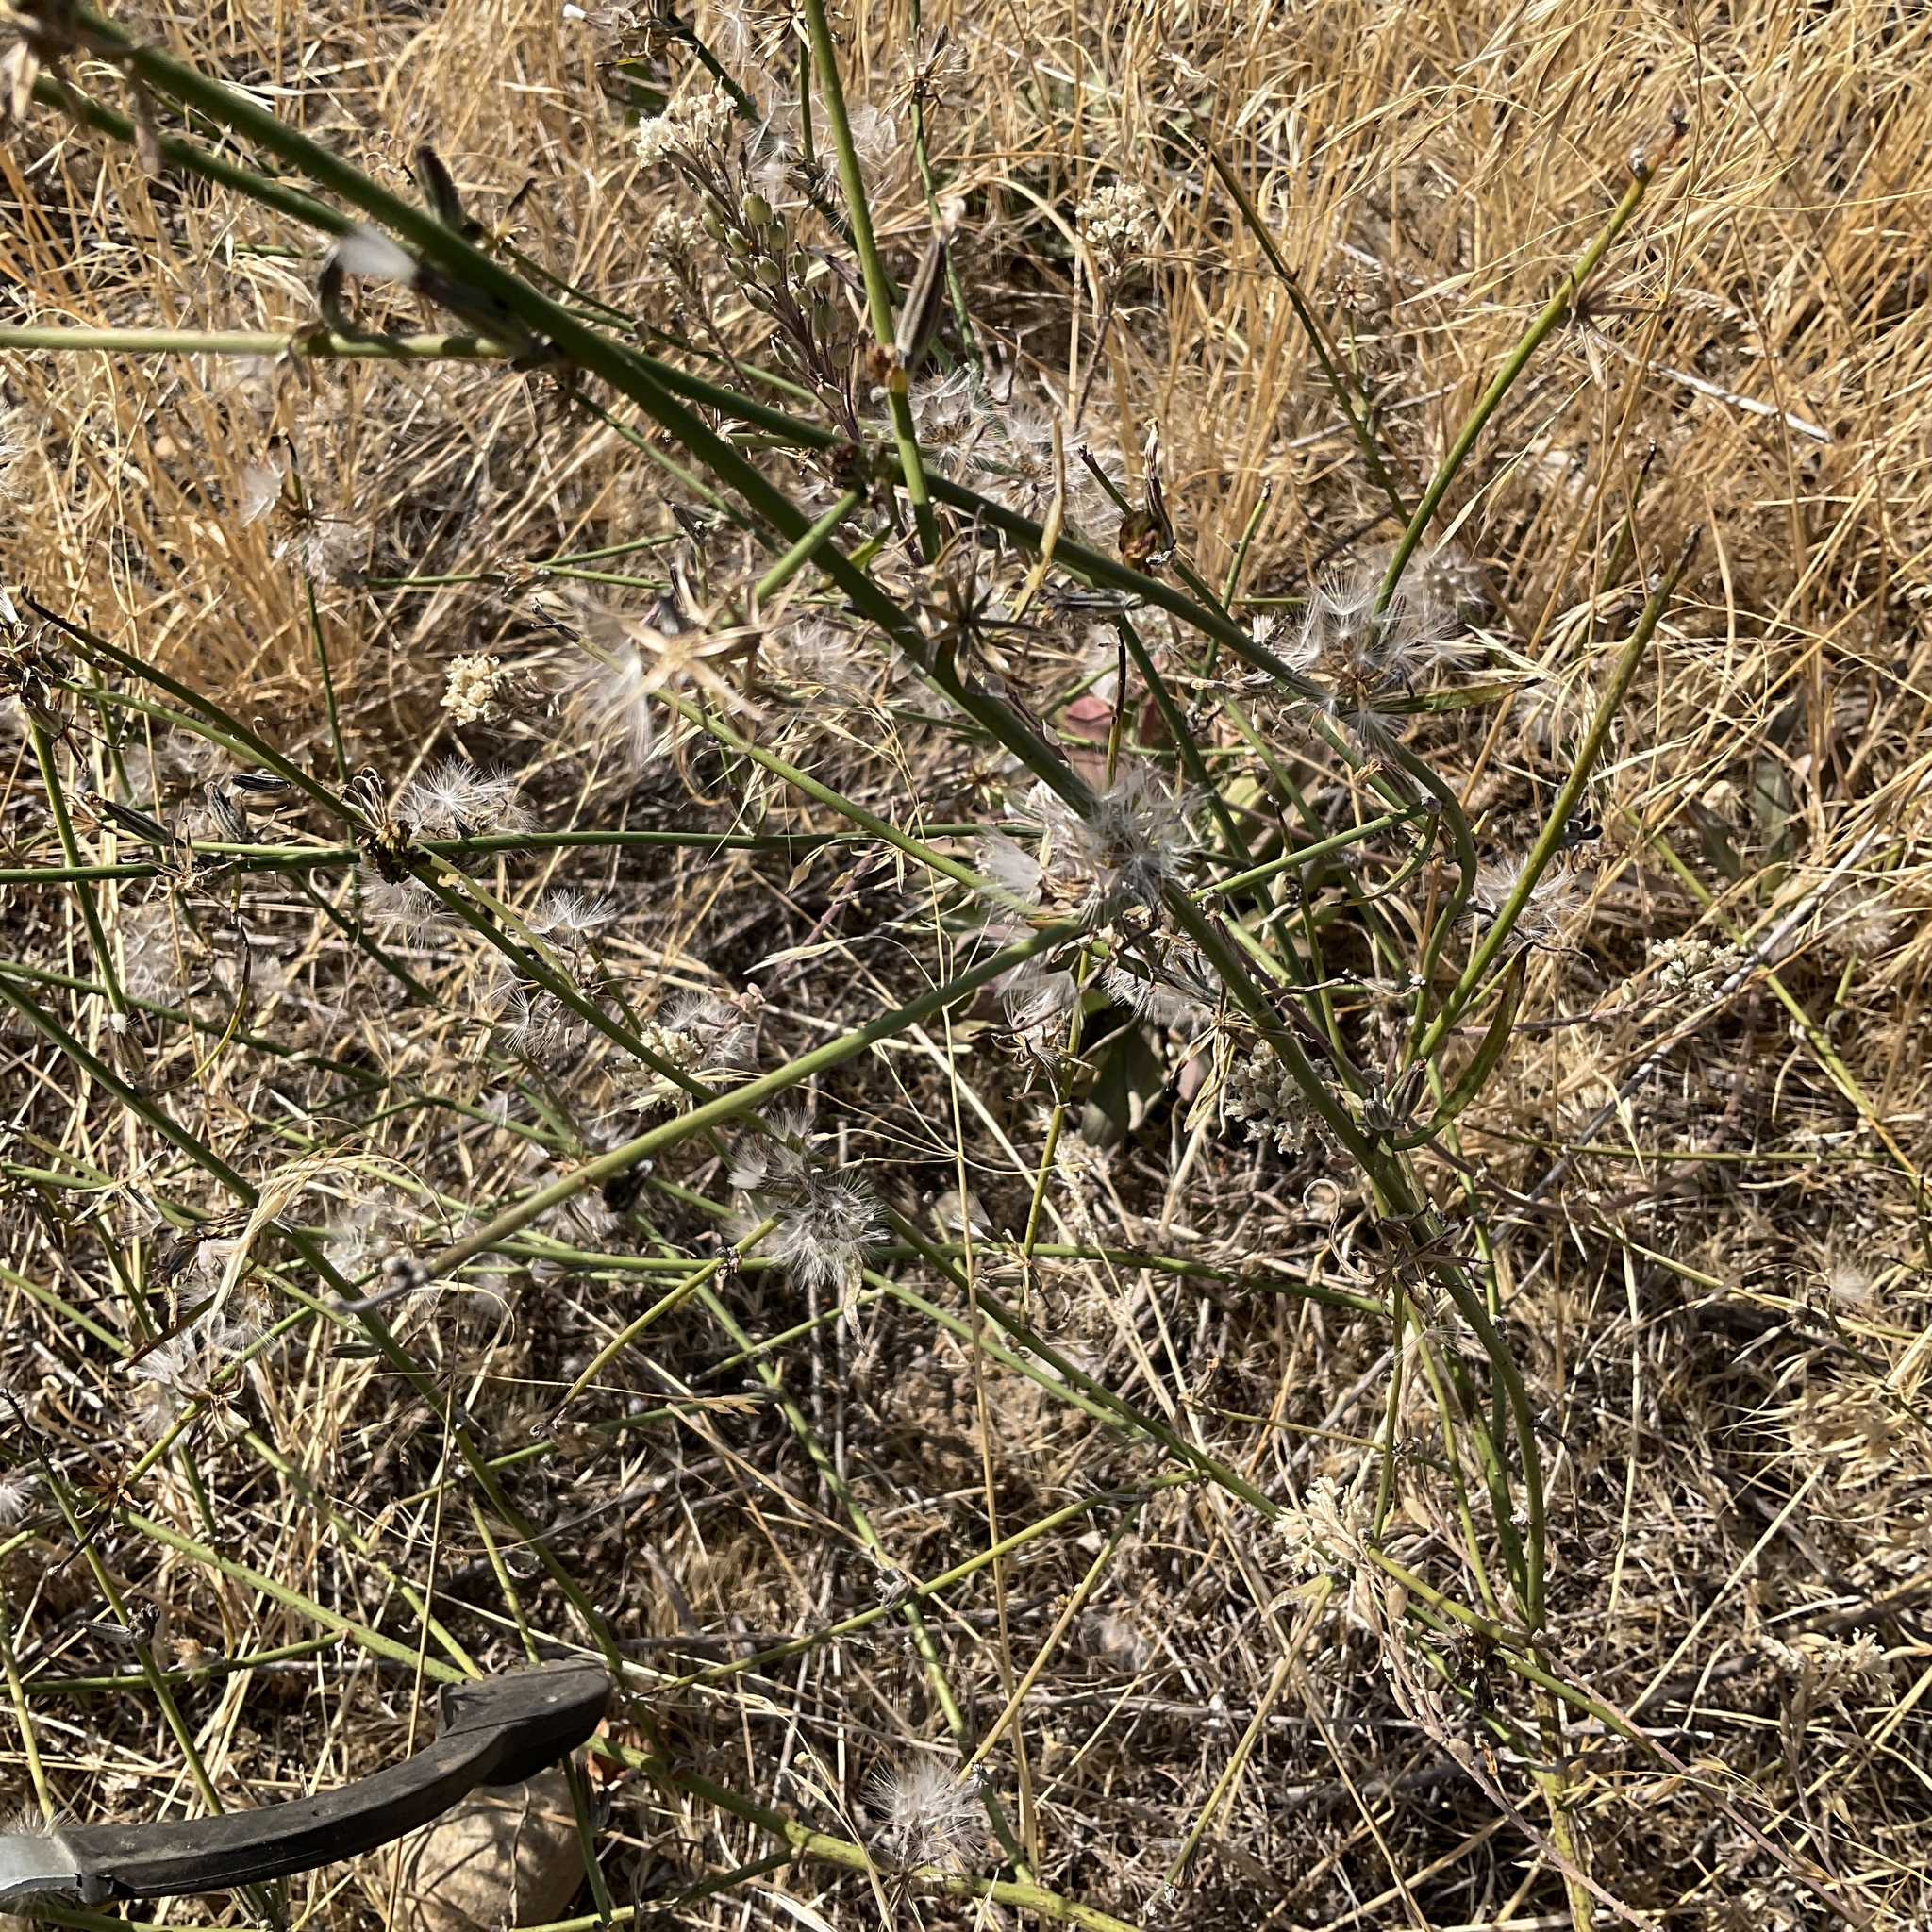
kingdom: Plantae
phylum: Tracheophyta
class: Magnoliopsida
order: Asterales
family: Asteraceae
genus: Chondrilla
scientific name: Chondrilla juncea
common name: Skeleton weed
